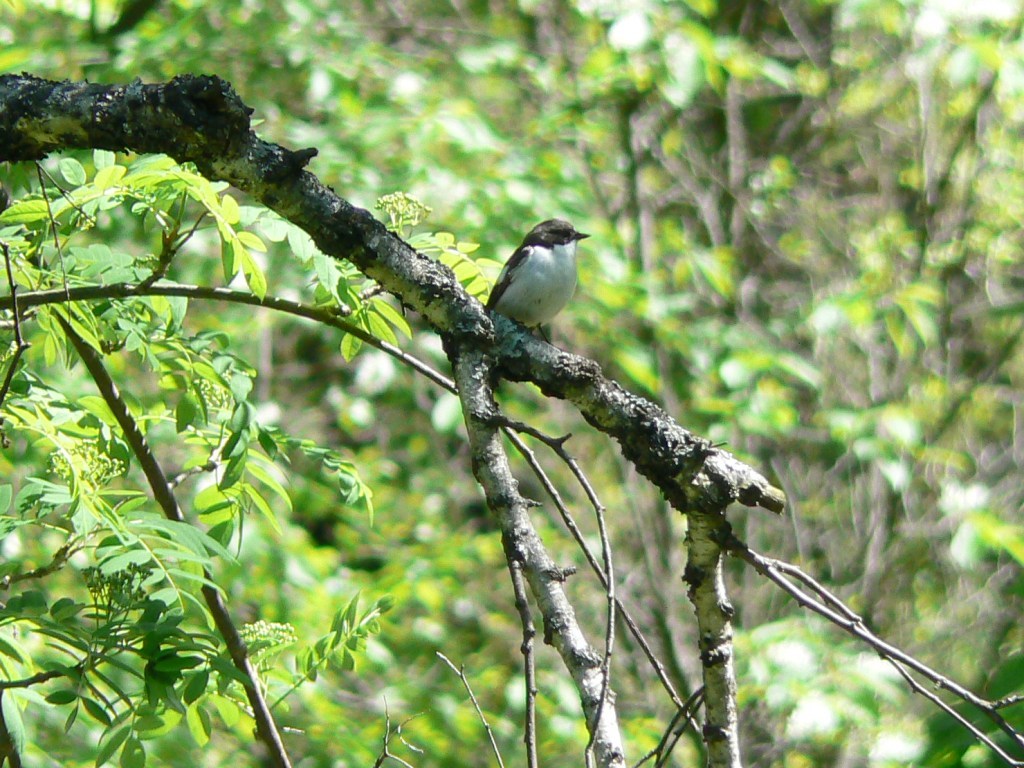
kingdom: Animalia
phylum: Chordata
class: Aves
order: Passeriformes
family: Muscicapidae
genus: Ficedula
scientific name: Ficedula hypoleuca
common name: European pied flycatcher
